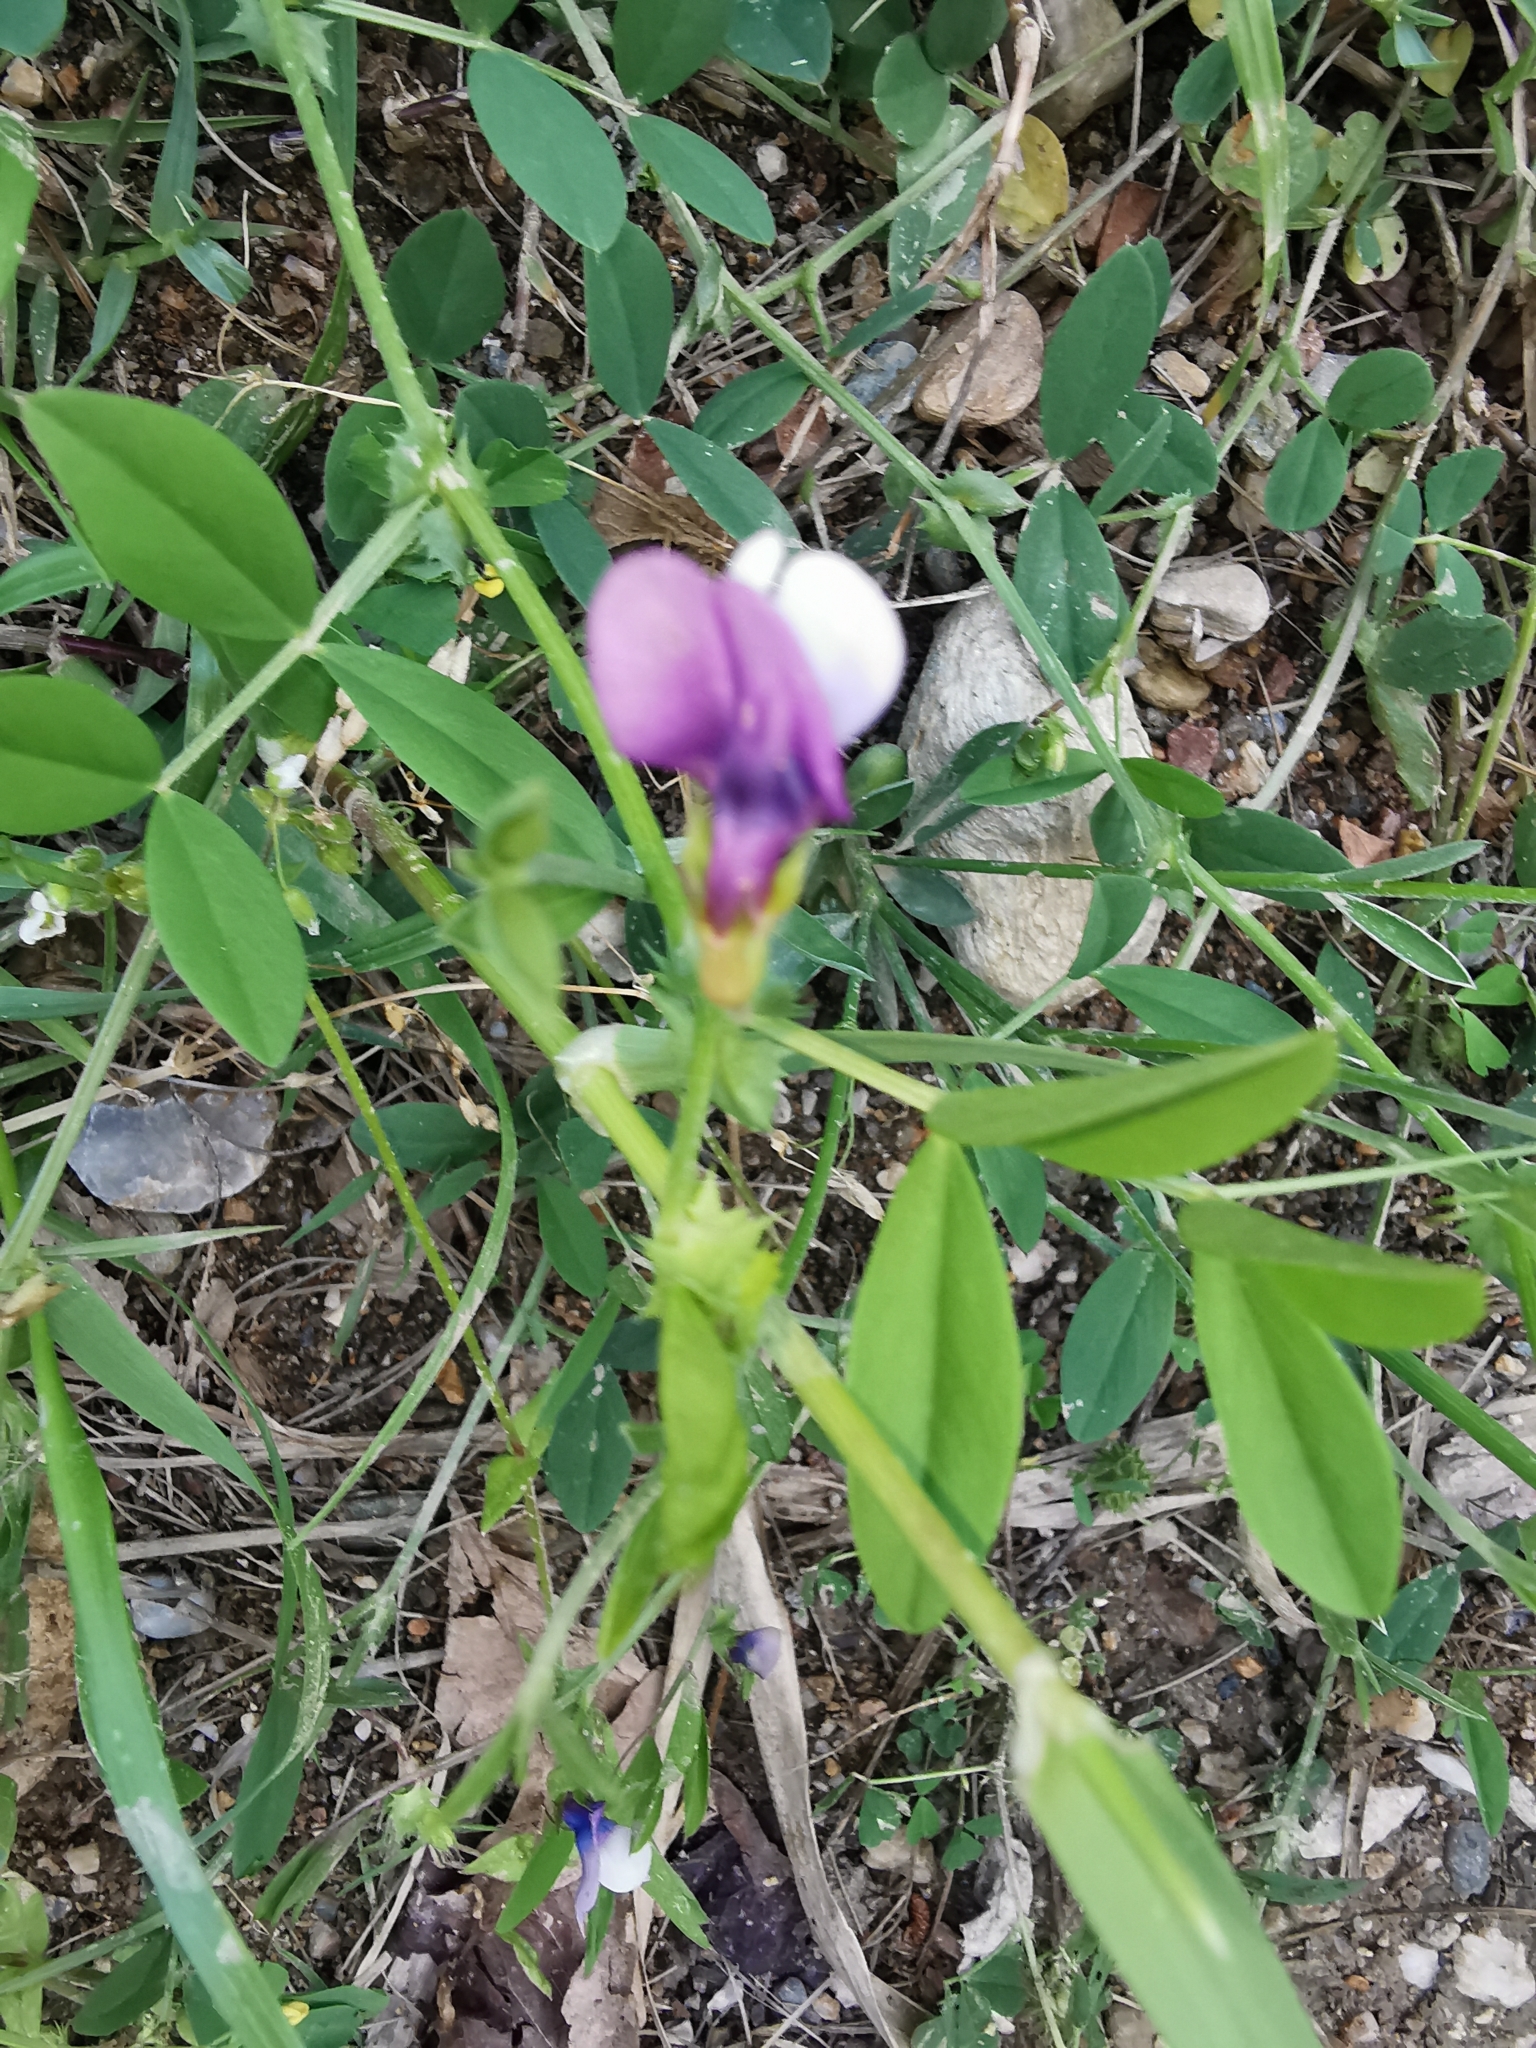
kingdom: Plantae
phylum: Tracheophyta
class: Magnoliopsida
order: Fabales
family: Fabaceae
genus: Vicia
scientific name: Vicia bithynica
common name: Bithynian vetch
